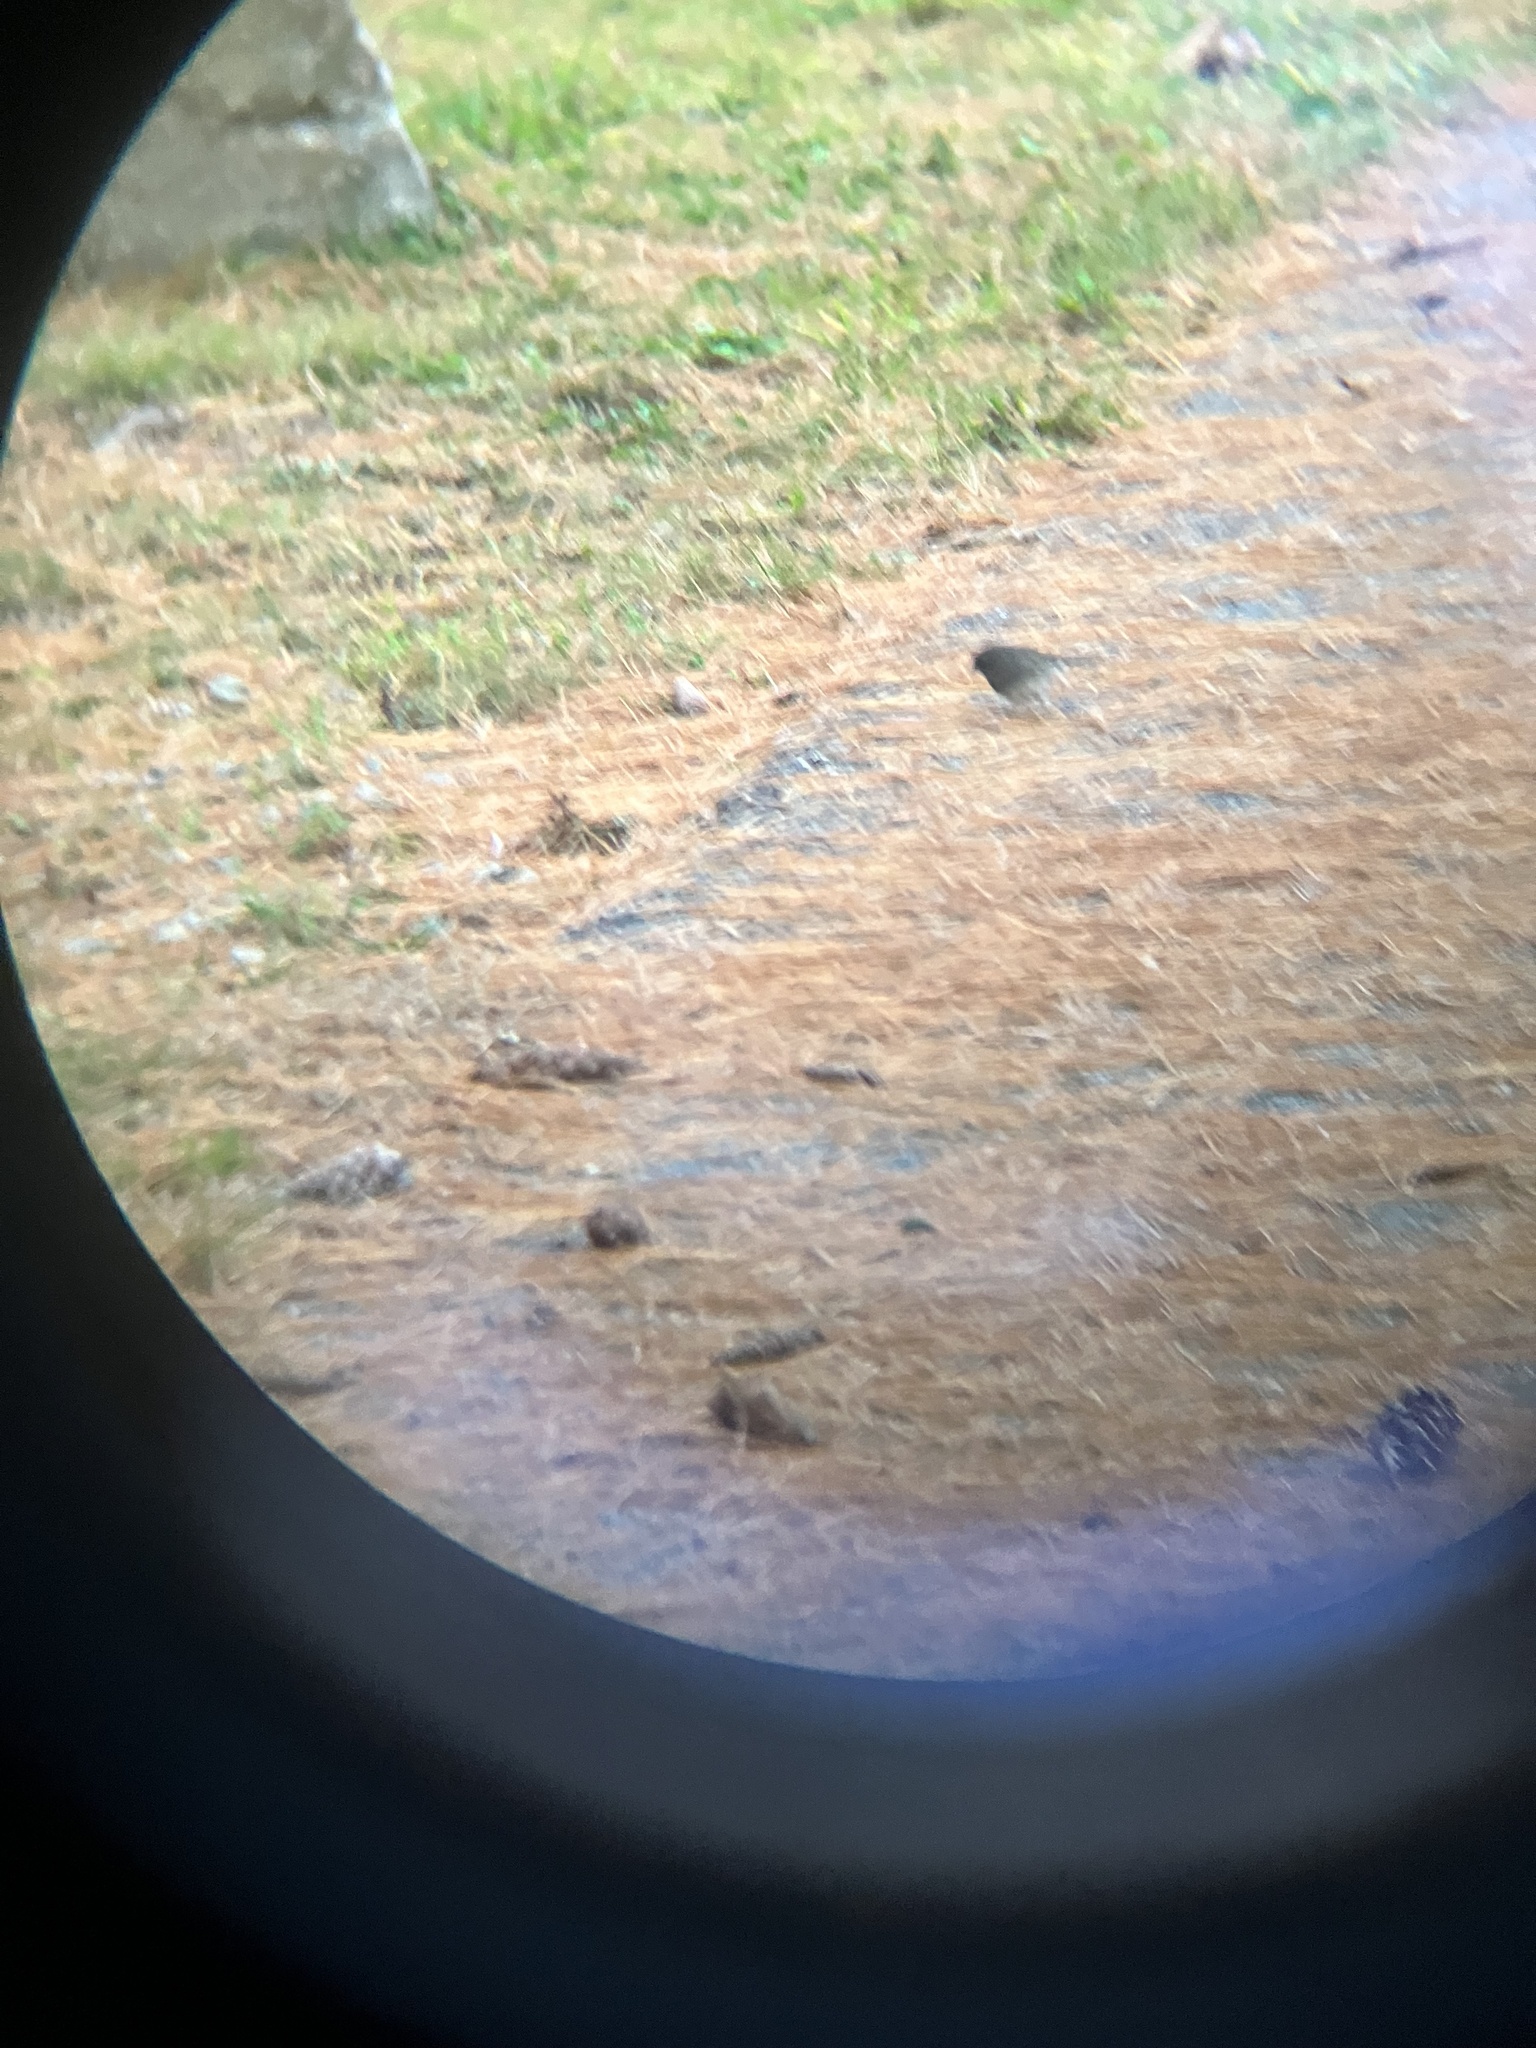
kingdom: Animalia
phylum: Chordata
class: Aves
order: Passeriformes
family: Passerellidae
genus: Junco
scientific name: Junco hyemalis
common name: Dark-eyed junco
